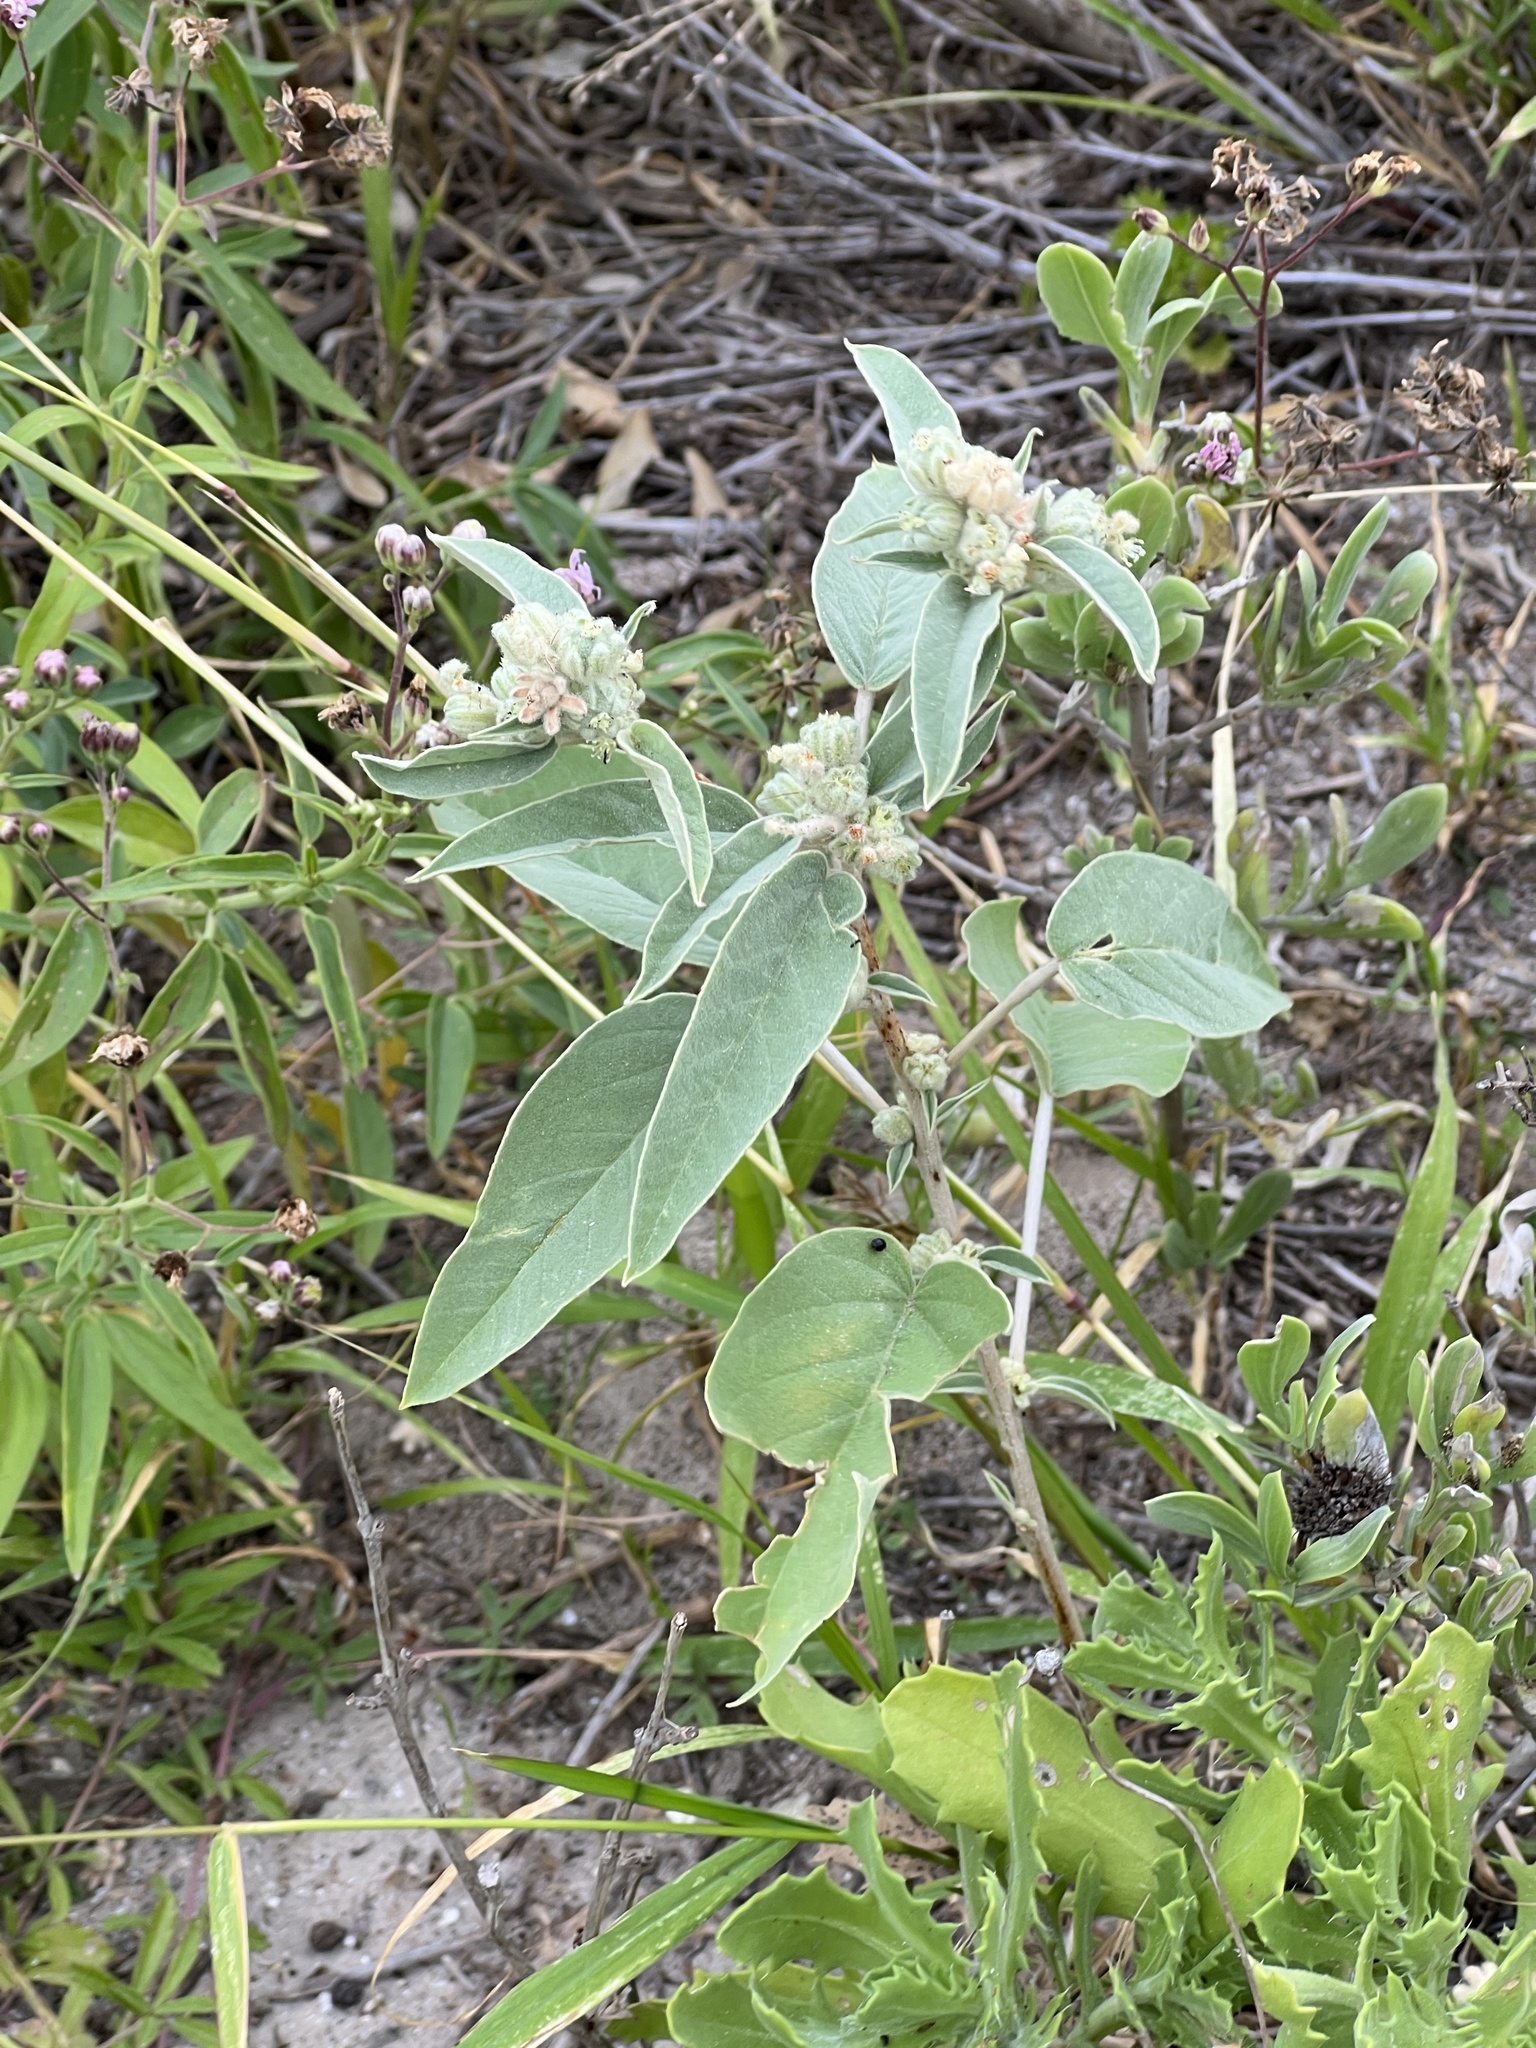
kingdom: Plantae
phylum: Tracheophyta
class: Magnoliopsida
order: Malpighiales
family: Euphorbiaceae
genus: Croton
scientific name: Croton lindheimeri
